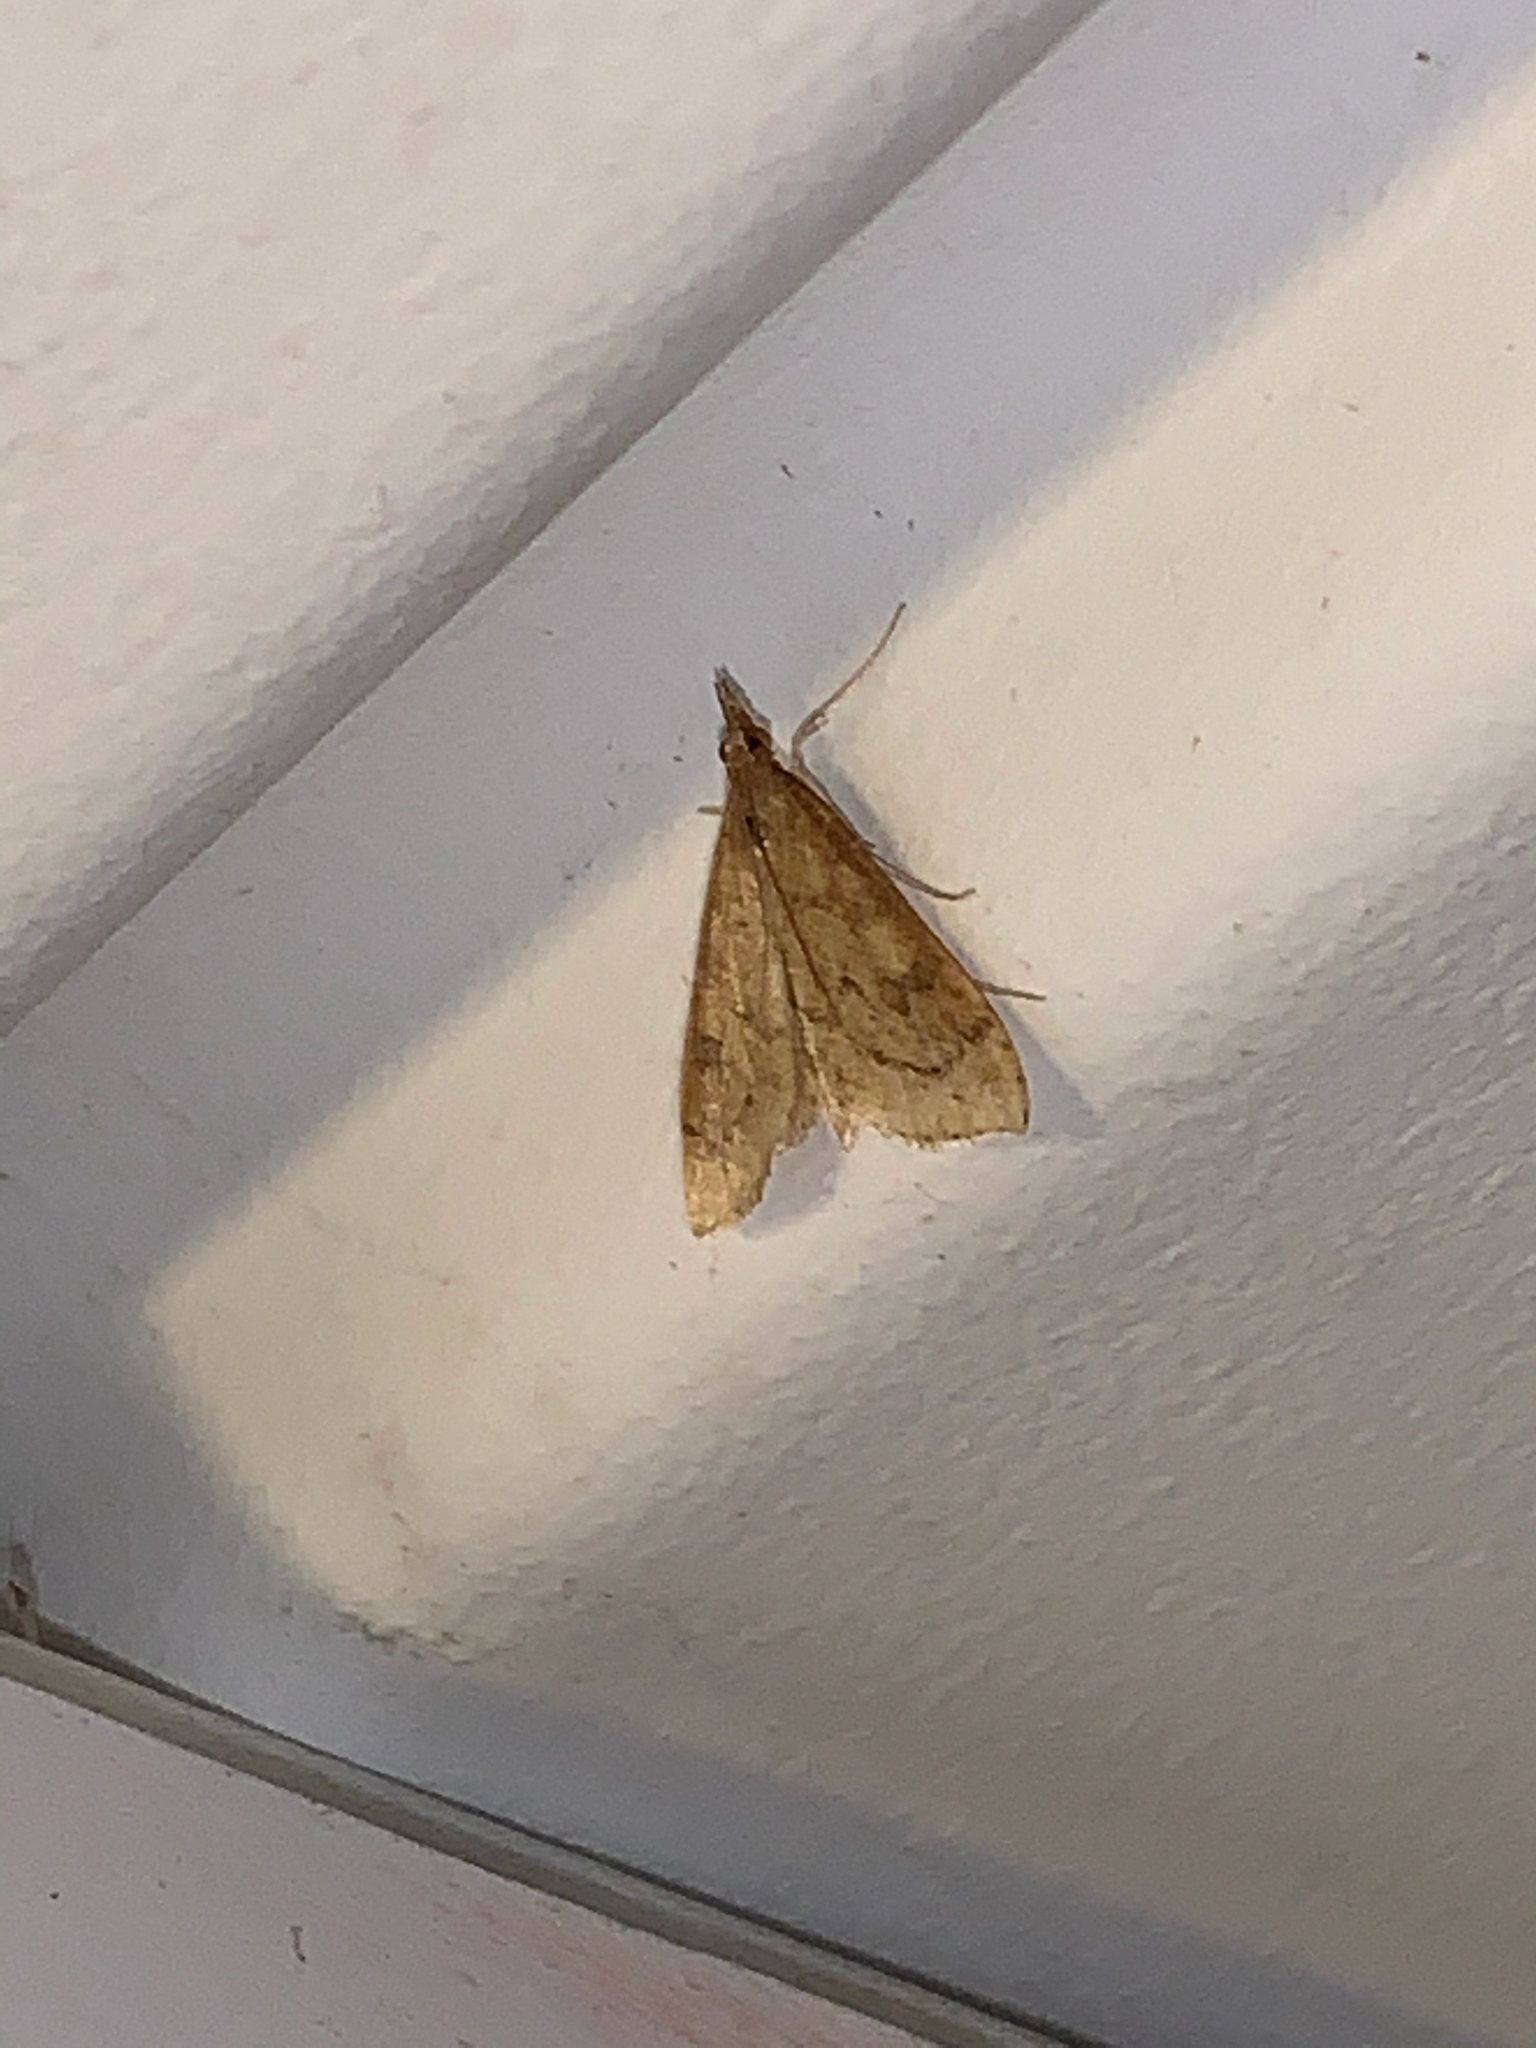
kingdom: Animalia
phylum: Arthropoda
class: Insecta
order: Lepidoptera
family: Crambidae
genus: Udea
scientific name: Udea rubigalis
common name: Celery leaftier moth
